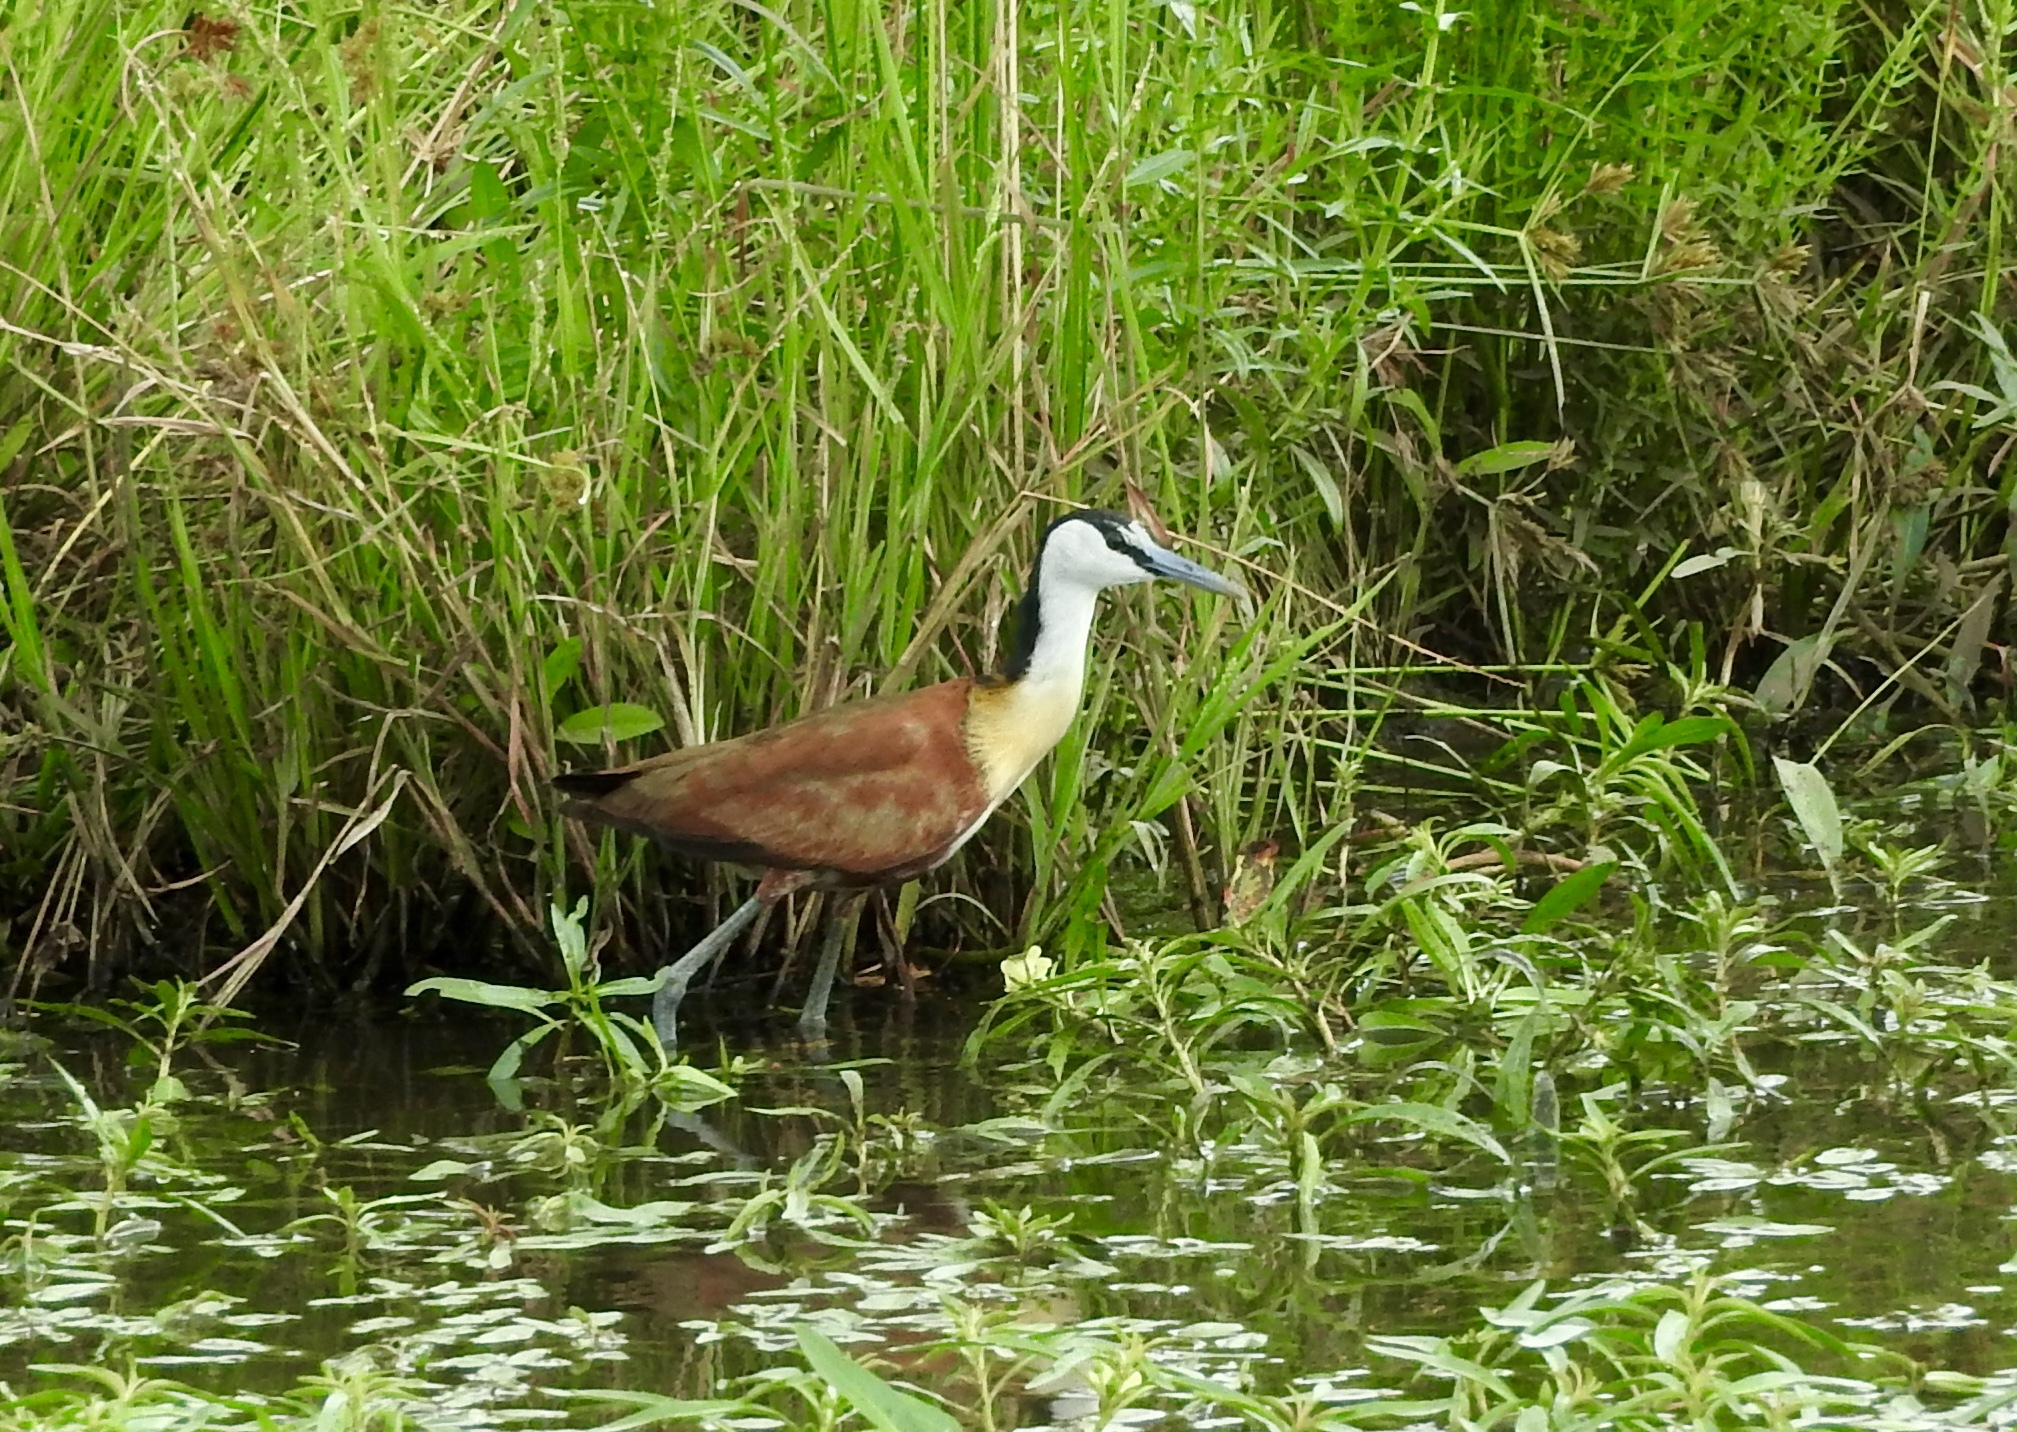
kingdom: Animalia
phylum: Chordata
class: Aves
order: Charadriiformes
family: Jacanidae
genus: Actophilornis
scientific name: Actophilornis africanus
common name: African jacana
